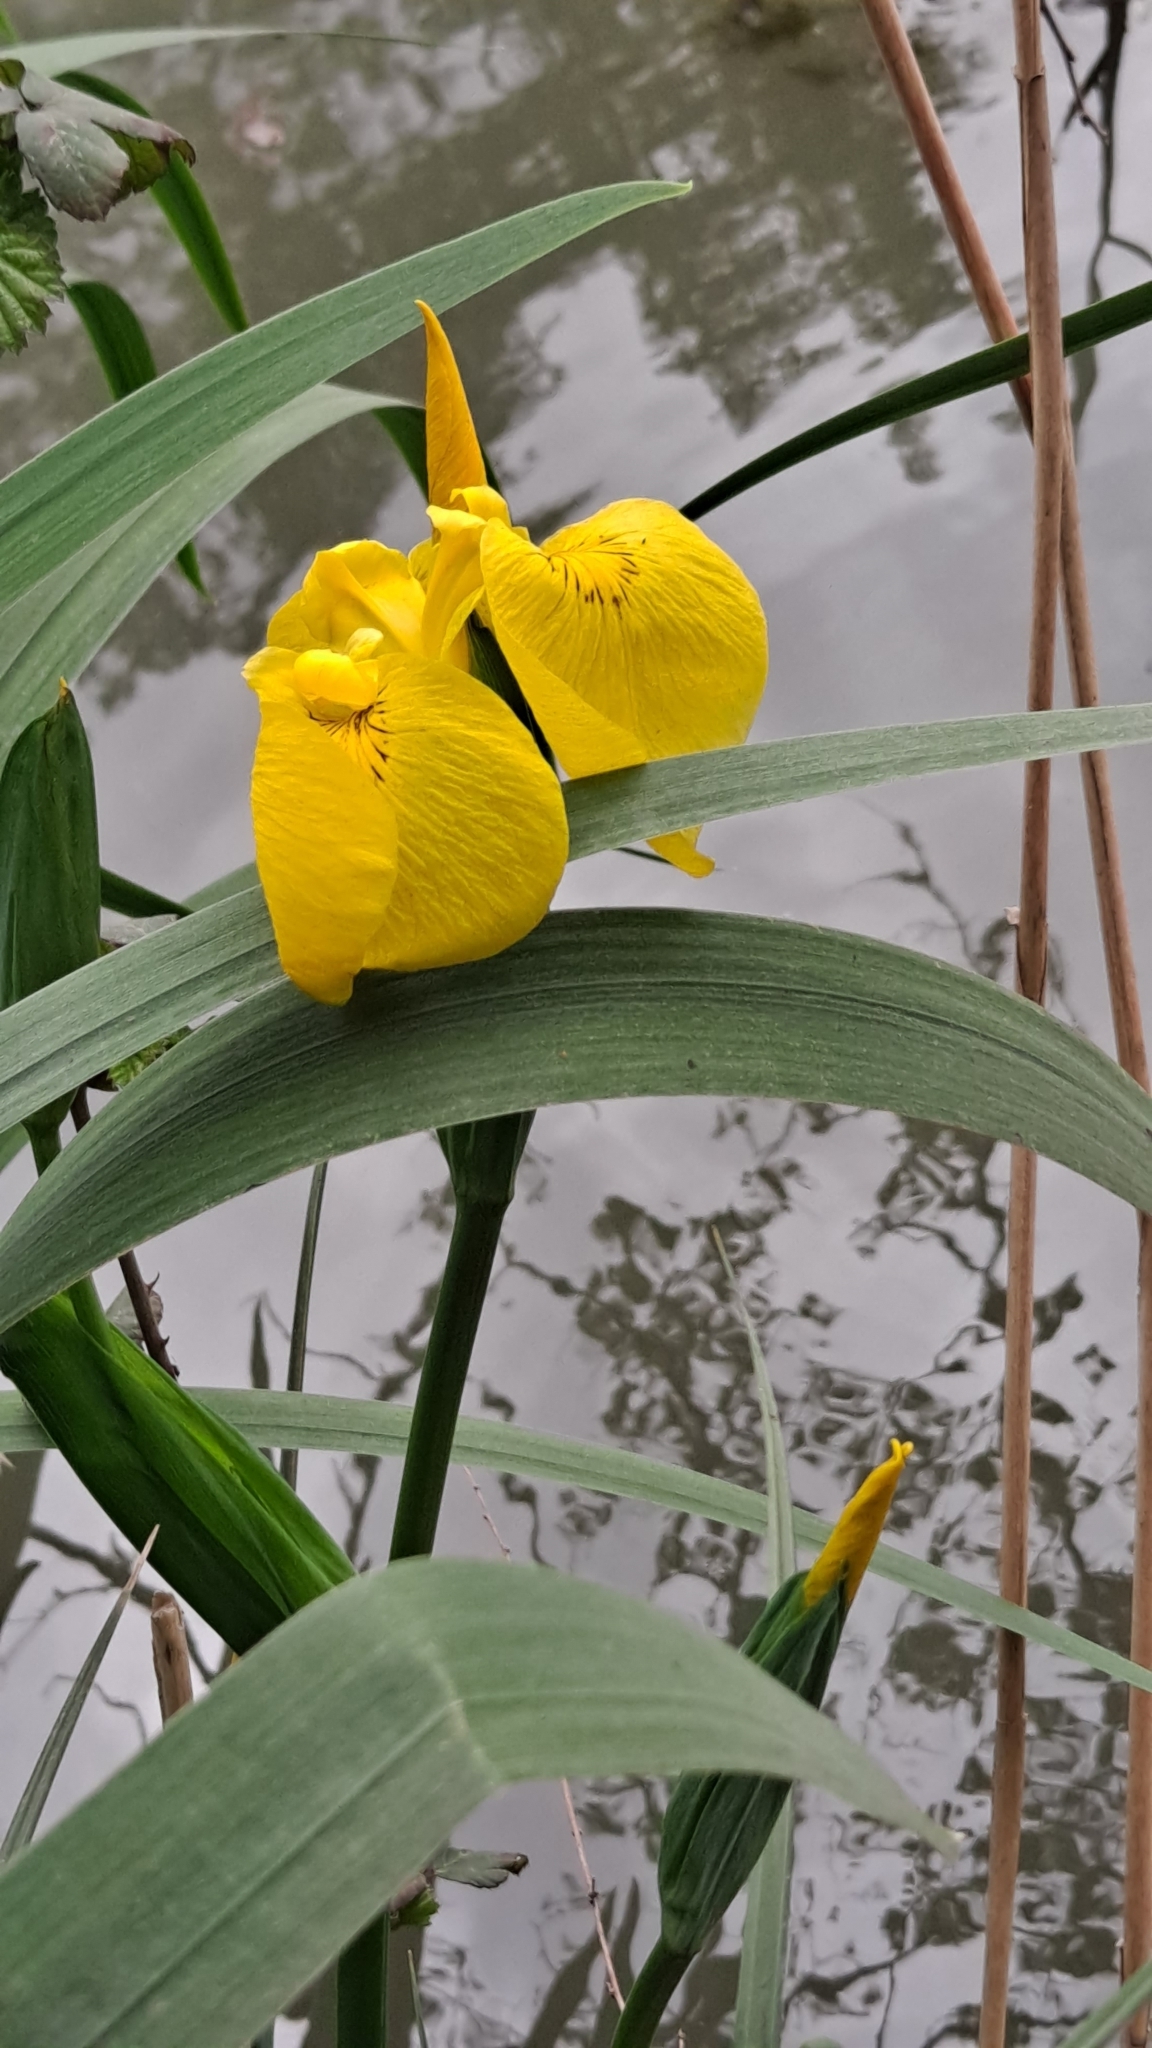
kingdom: Plantae
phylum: Tracheophyta
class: Liliopsida
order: Asparagales
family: Iridaceae
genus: Iris
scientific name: Iris pseudacorus
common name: Yellow flag
